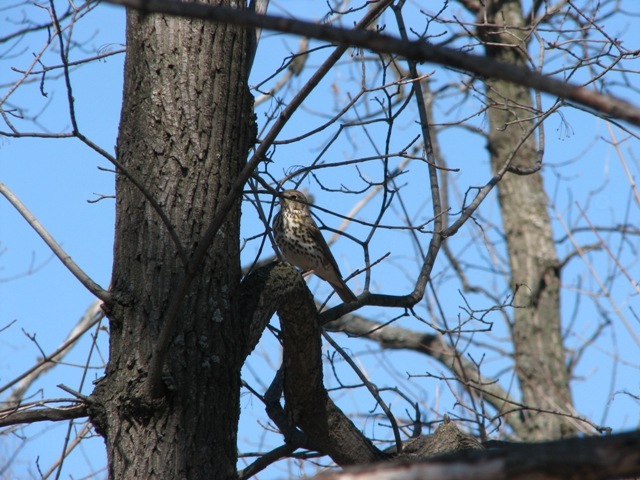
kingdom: Animalia
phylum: Chordata
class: Aves
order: Passeriformes
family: Turdidae
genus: Turdus
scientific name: Turdus philomelos
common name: Song thrush
